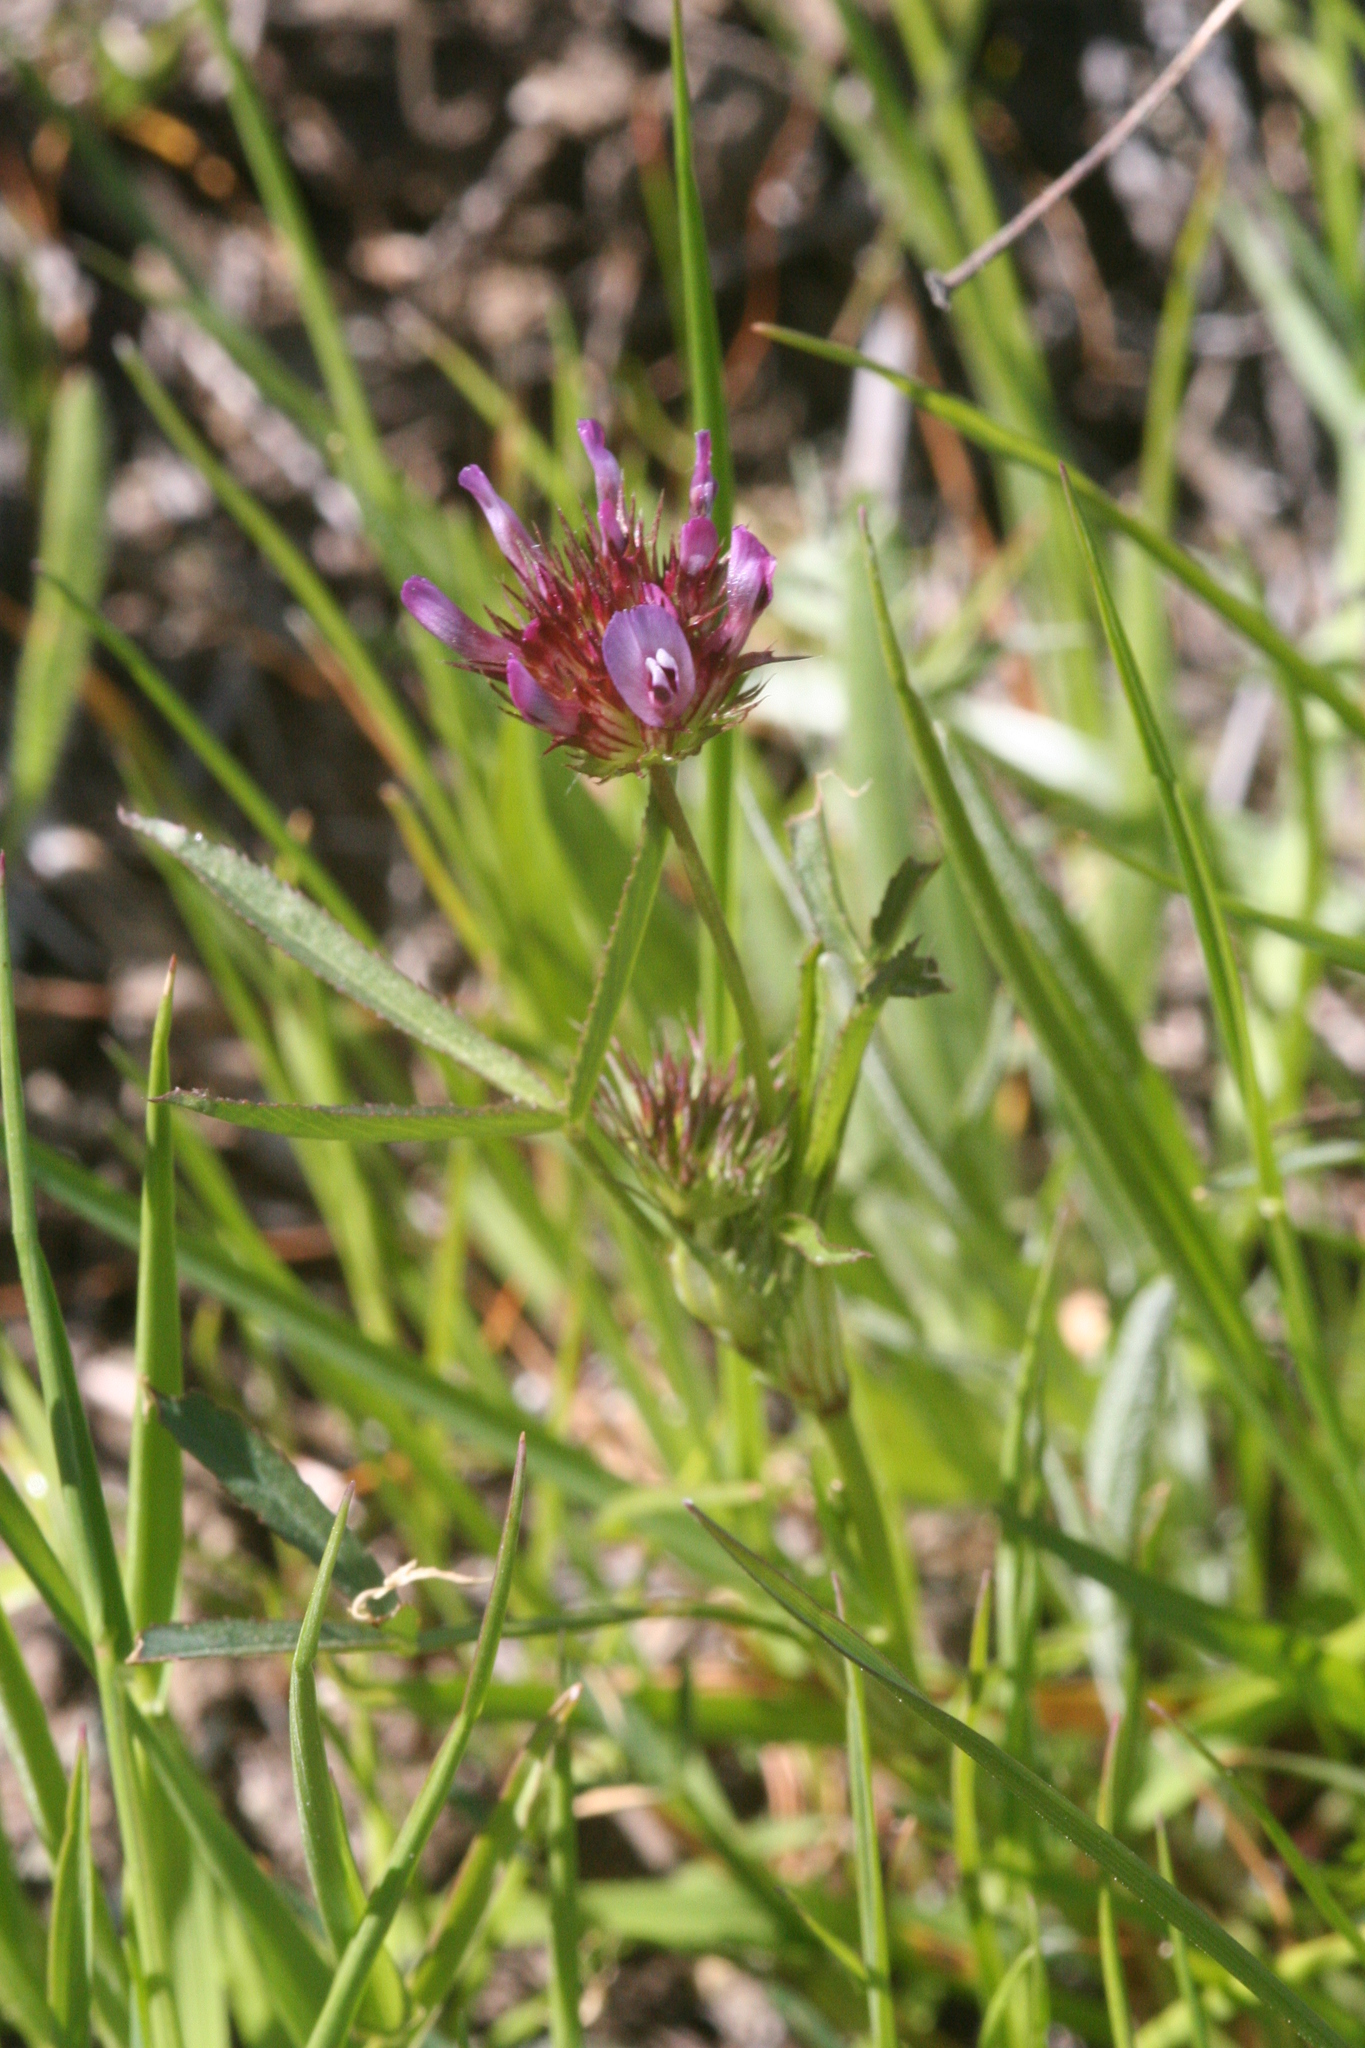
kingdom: Plantae
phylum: Tracheophyta
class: Magnoliopsida
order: Fabales
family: Fabaceae
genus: Trifolium
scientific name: Trifolium willdenovii
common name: Tomcat clover
